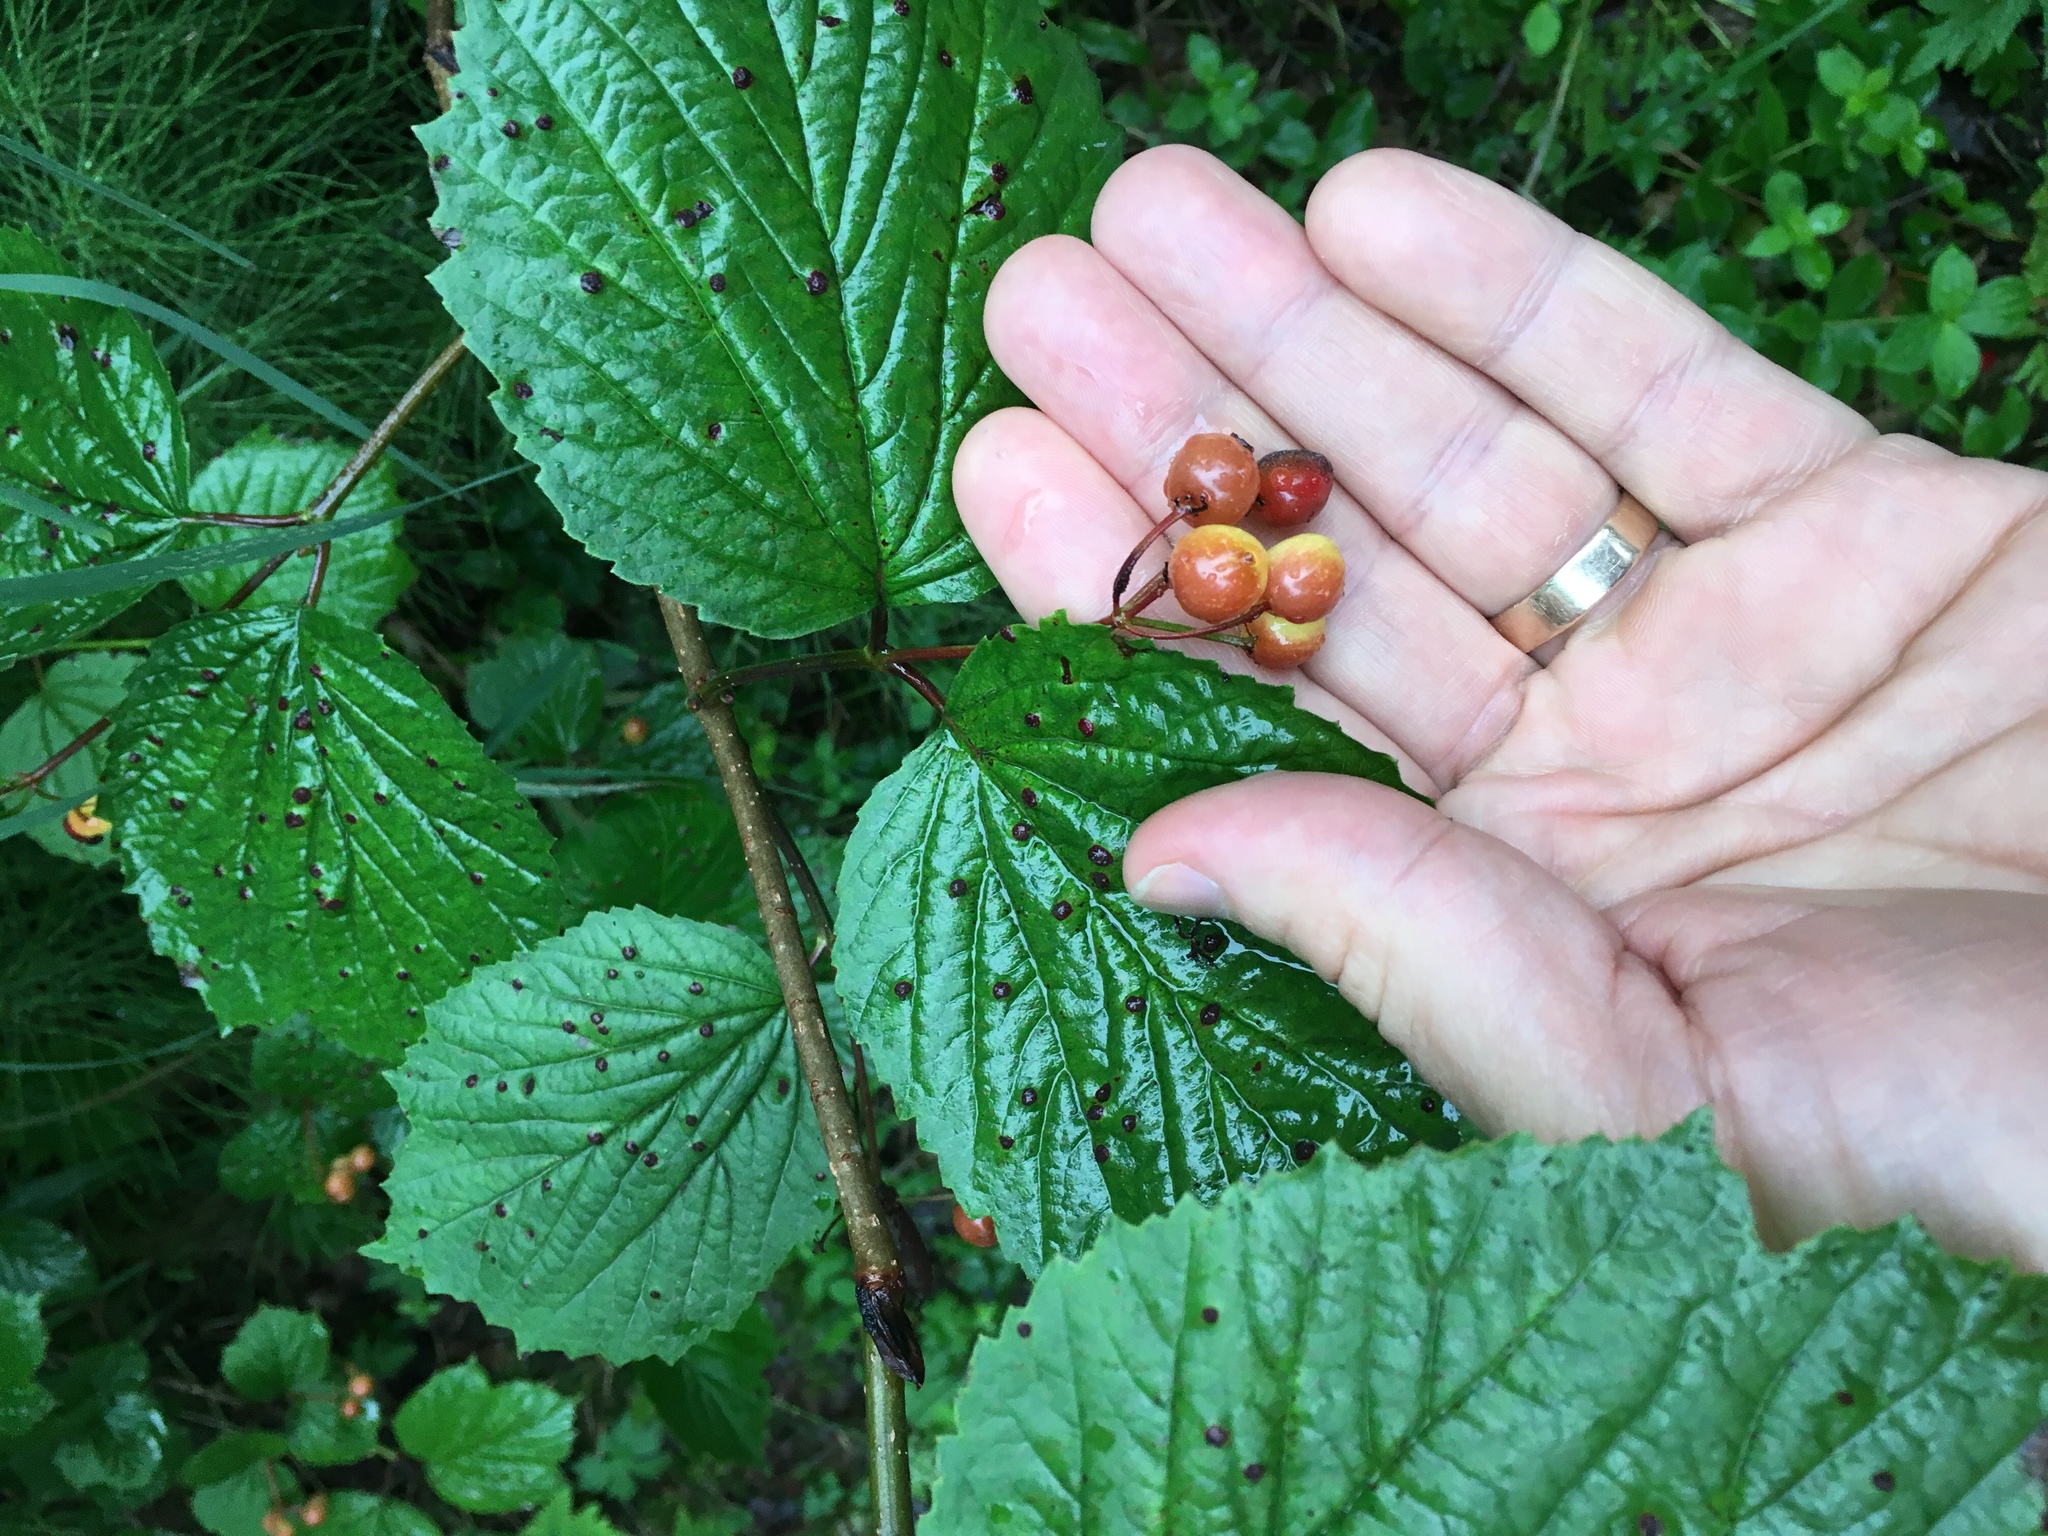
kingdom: Plantae
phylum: Tracheophyta
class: Magnoliopsida
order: Dipsacales
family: Viburnaceae
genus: Viburnum
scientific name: Viburnum edule
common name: Mooseberry
